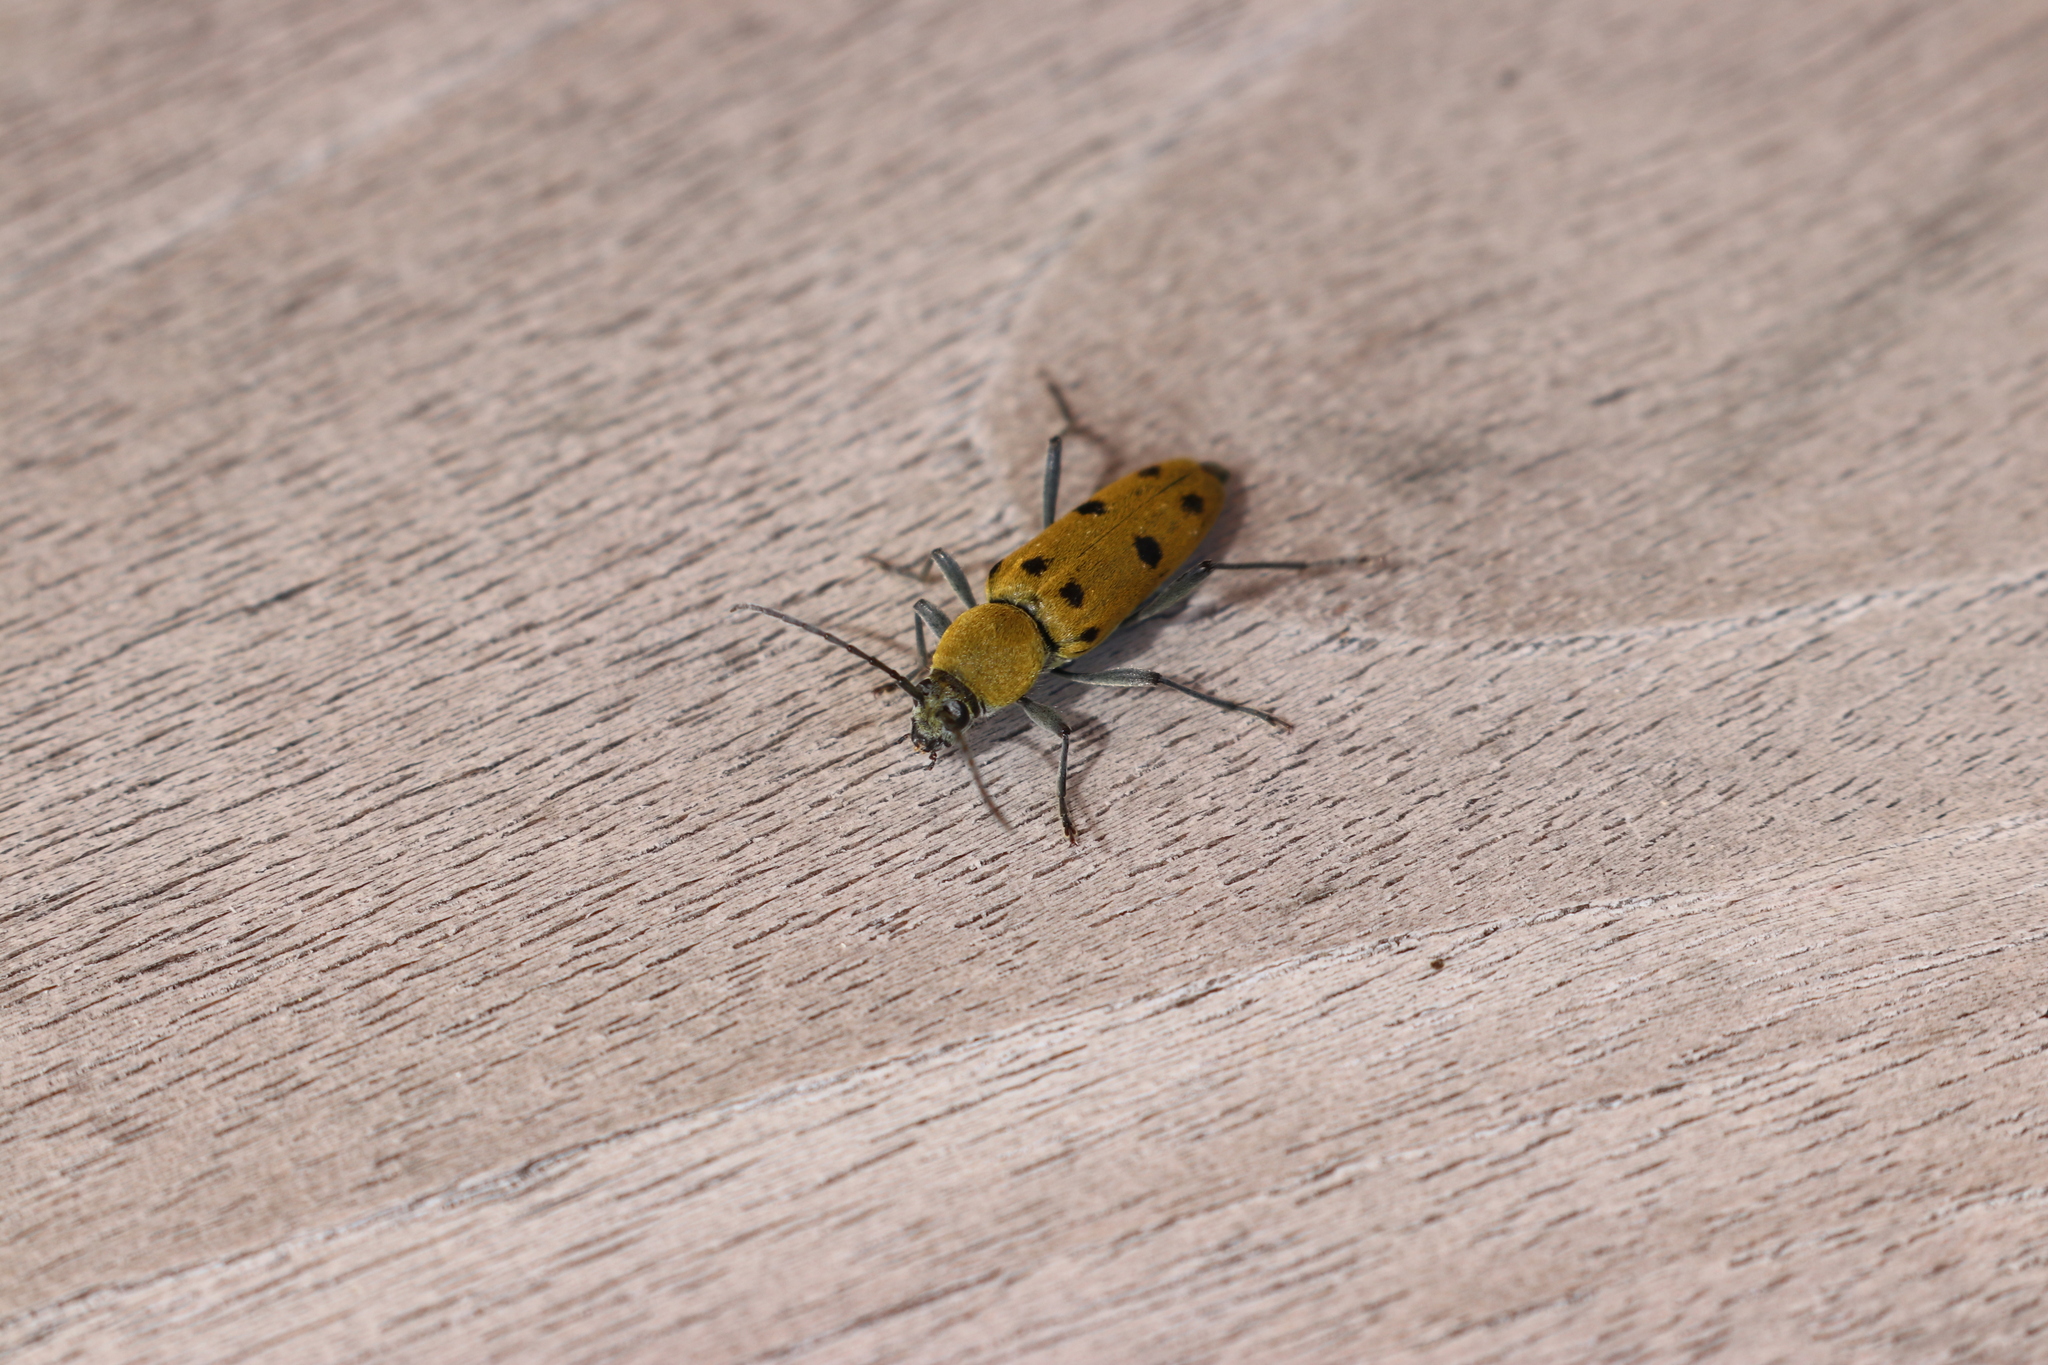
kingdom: Animalia
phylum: Arthropoda
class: Insecta
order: Coleoptera
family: Cerambycidae
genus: Chlorophorus
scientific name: Chlorophorus glabromaculatus
